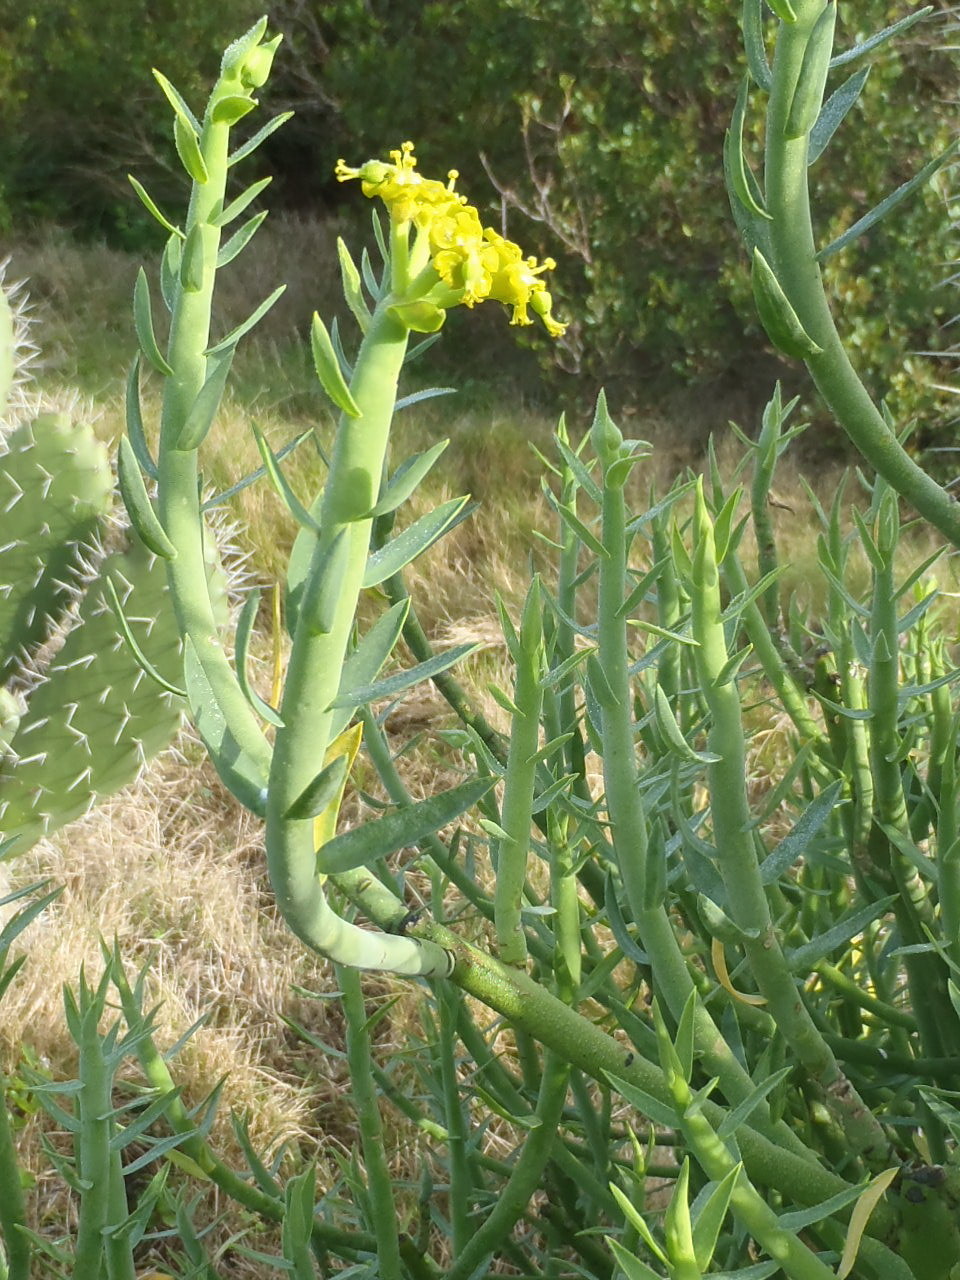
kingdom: Plantae
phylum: Tracheophyta
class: Magnoliopsida
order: Malpighiales
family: Euphorbiaceae
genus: Euphorbia
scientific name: Euphorbia mauritanica
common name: Jackal's-food
